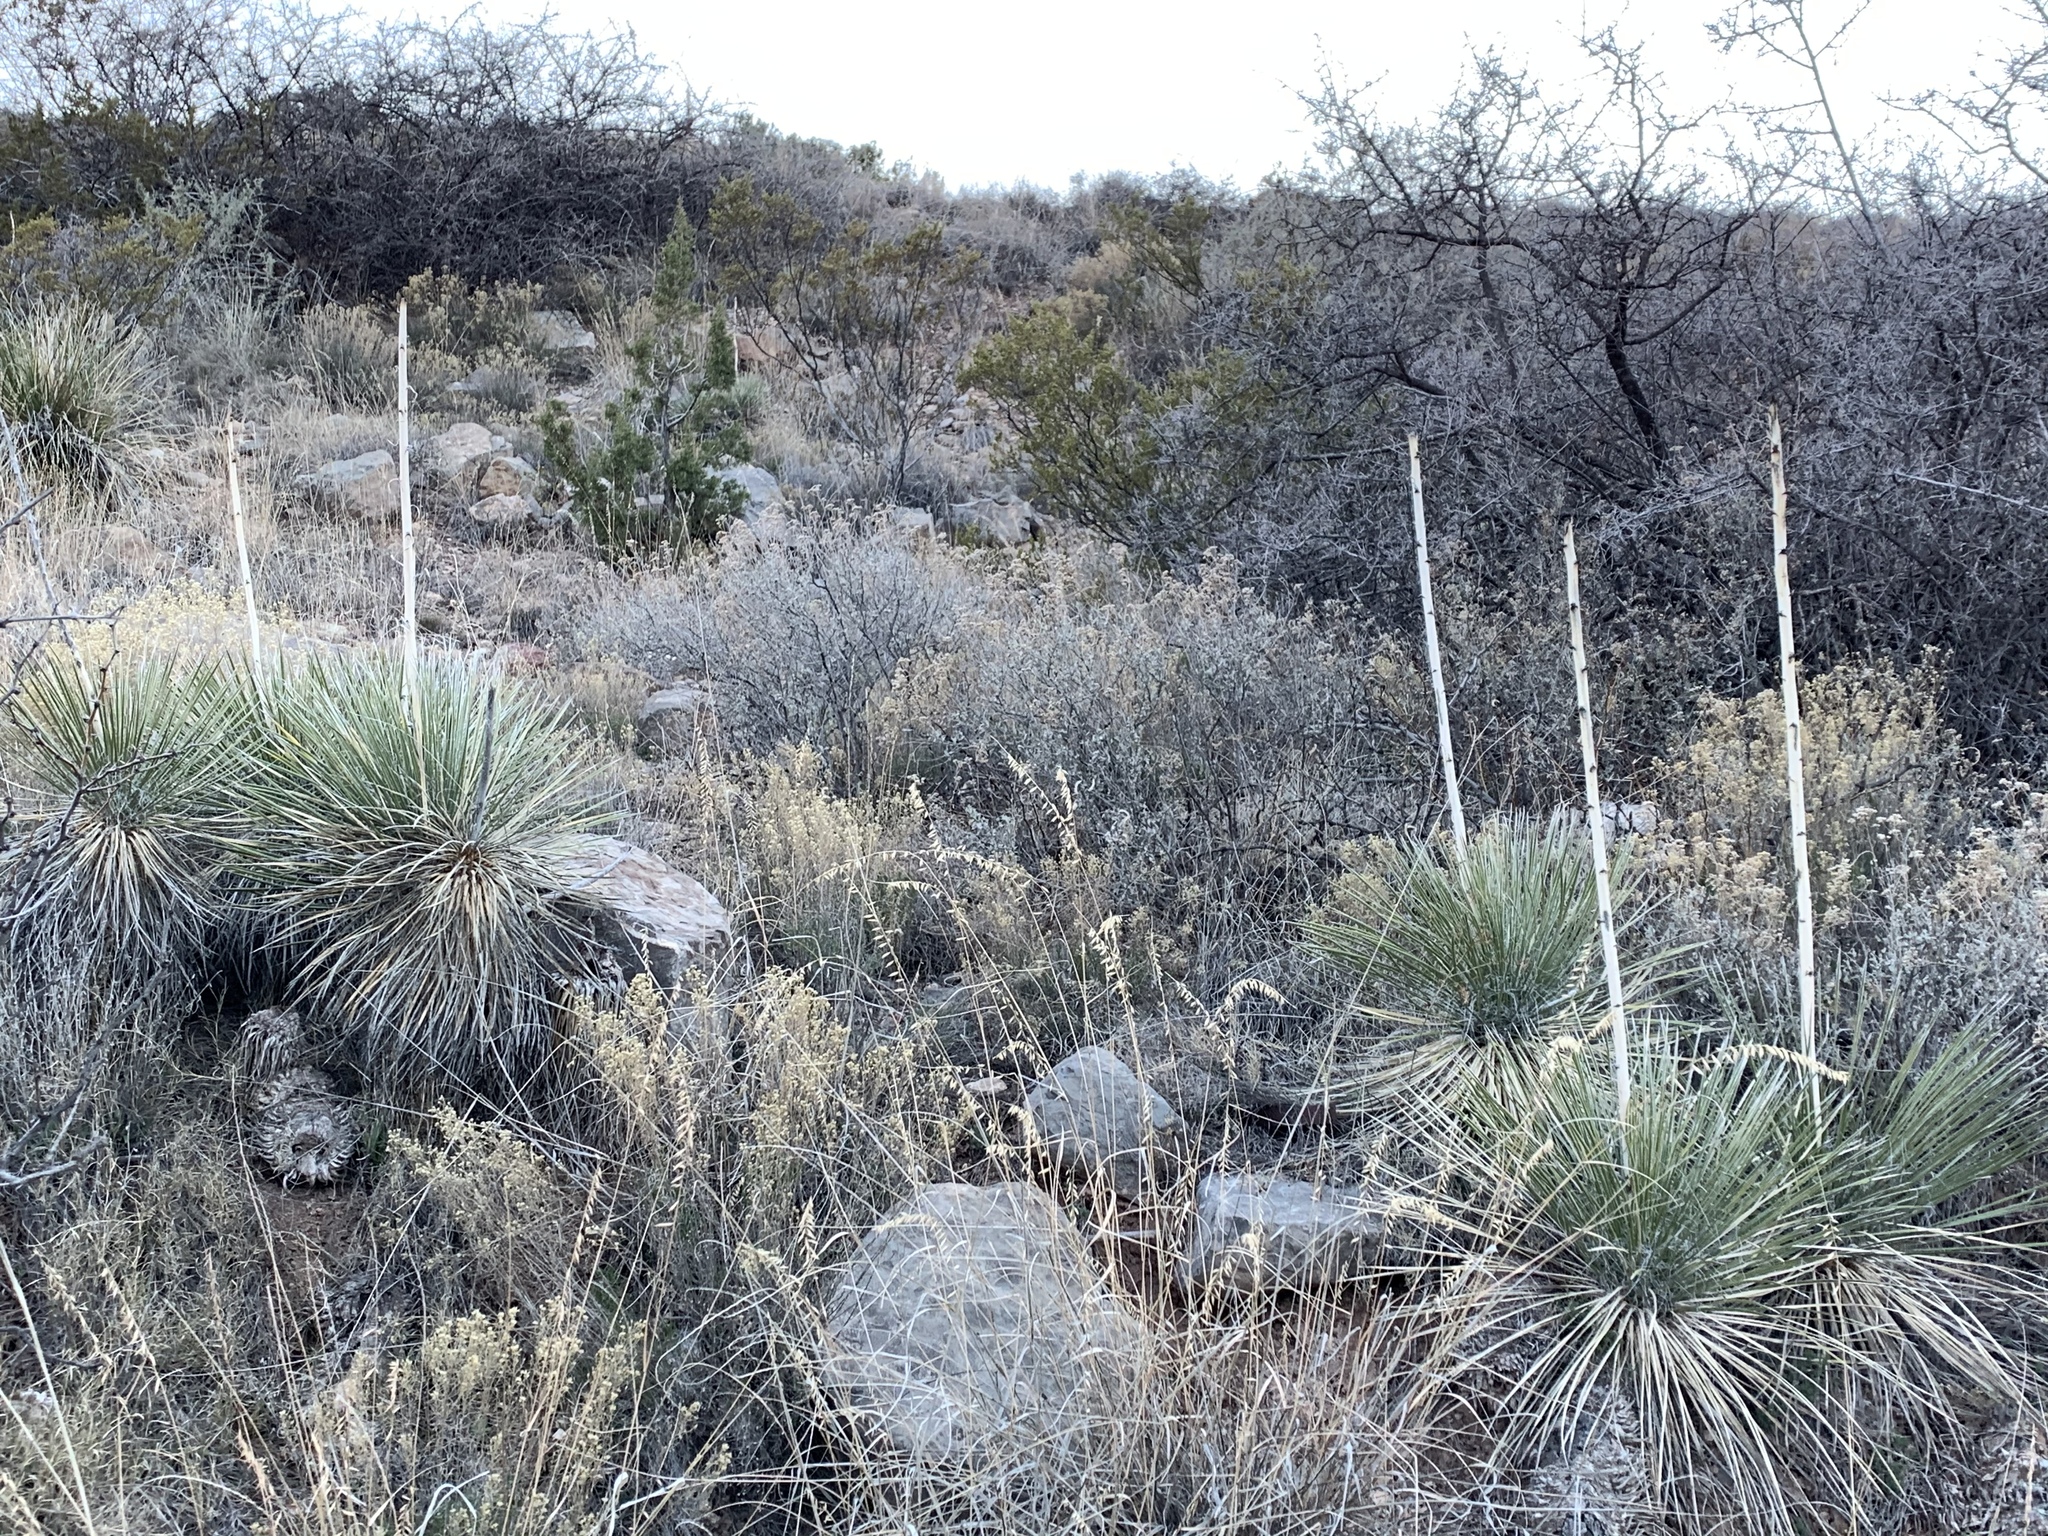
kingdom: Plantae
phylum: Tracheophyta
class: Liliopsida
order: Asparagales
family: Asparagaceae
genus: Yucca
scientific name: Yucca elata
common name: Palmella
